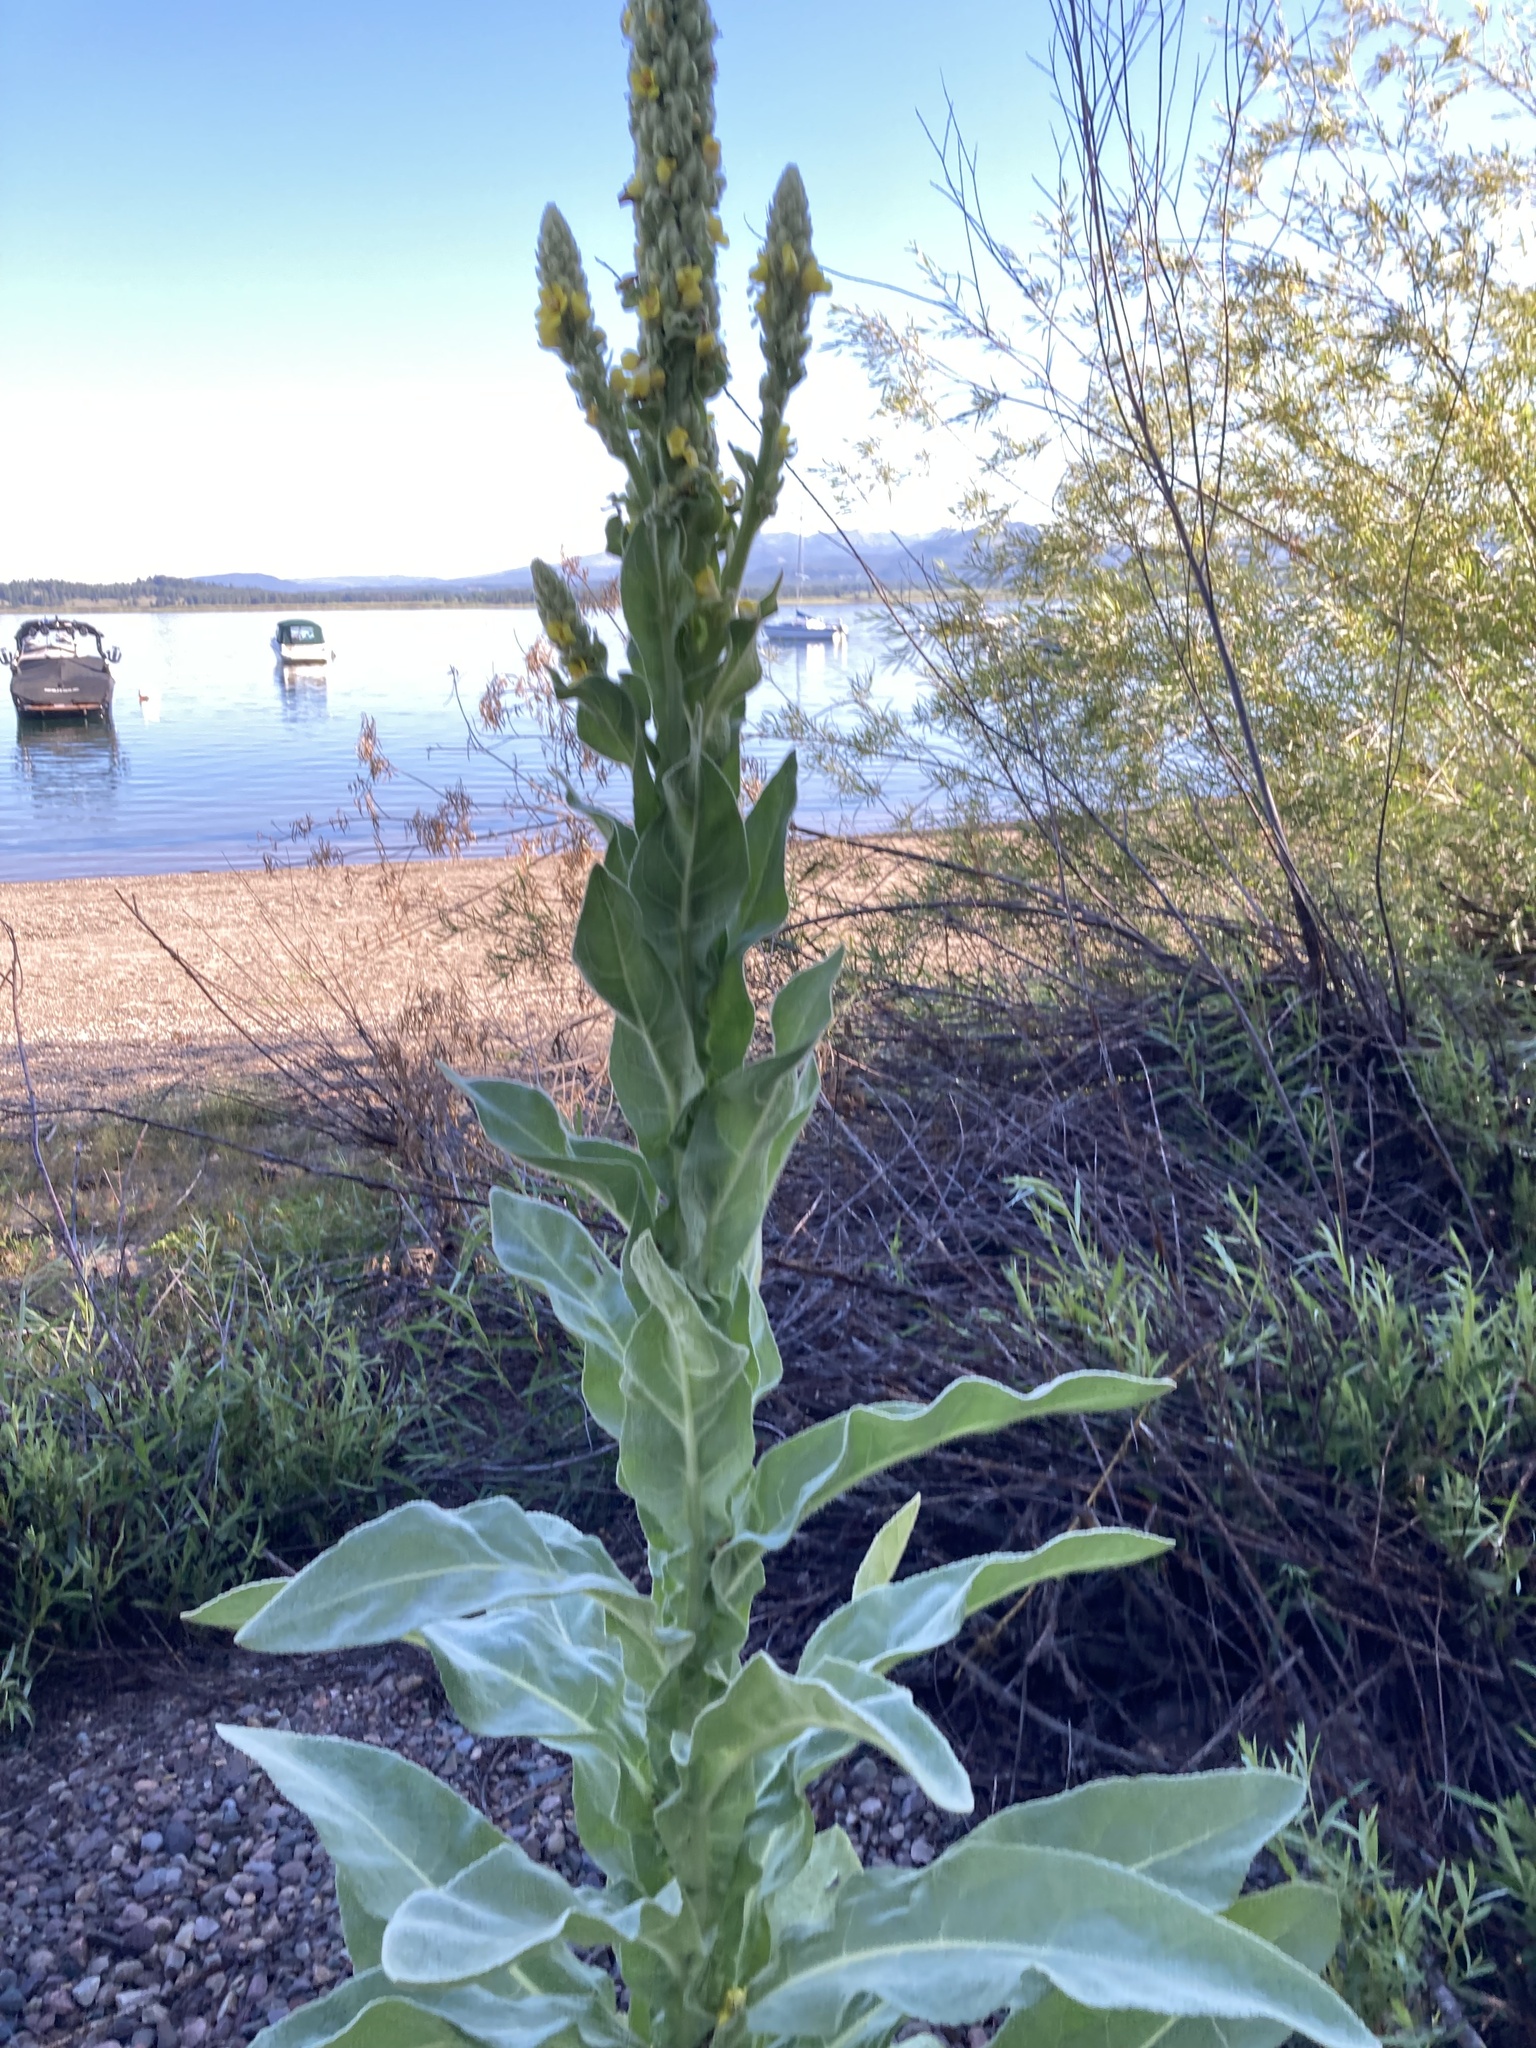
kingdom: Plantae
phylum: Tracheophyta
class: Magnoliopsida
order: Lamiales
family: Scrophulariaceae
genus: Verbascum
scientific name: Verbascum thapsus
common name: Common mullein
